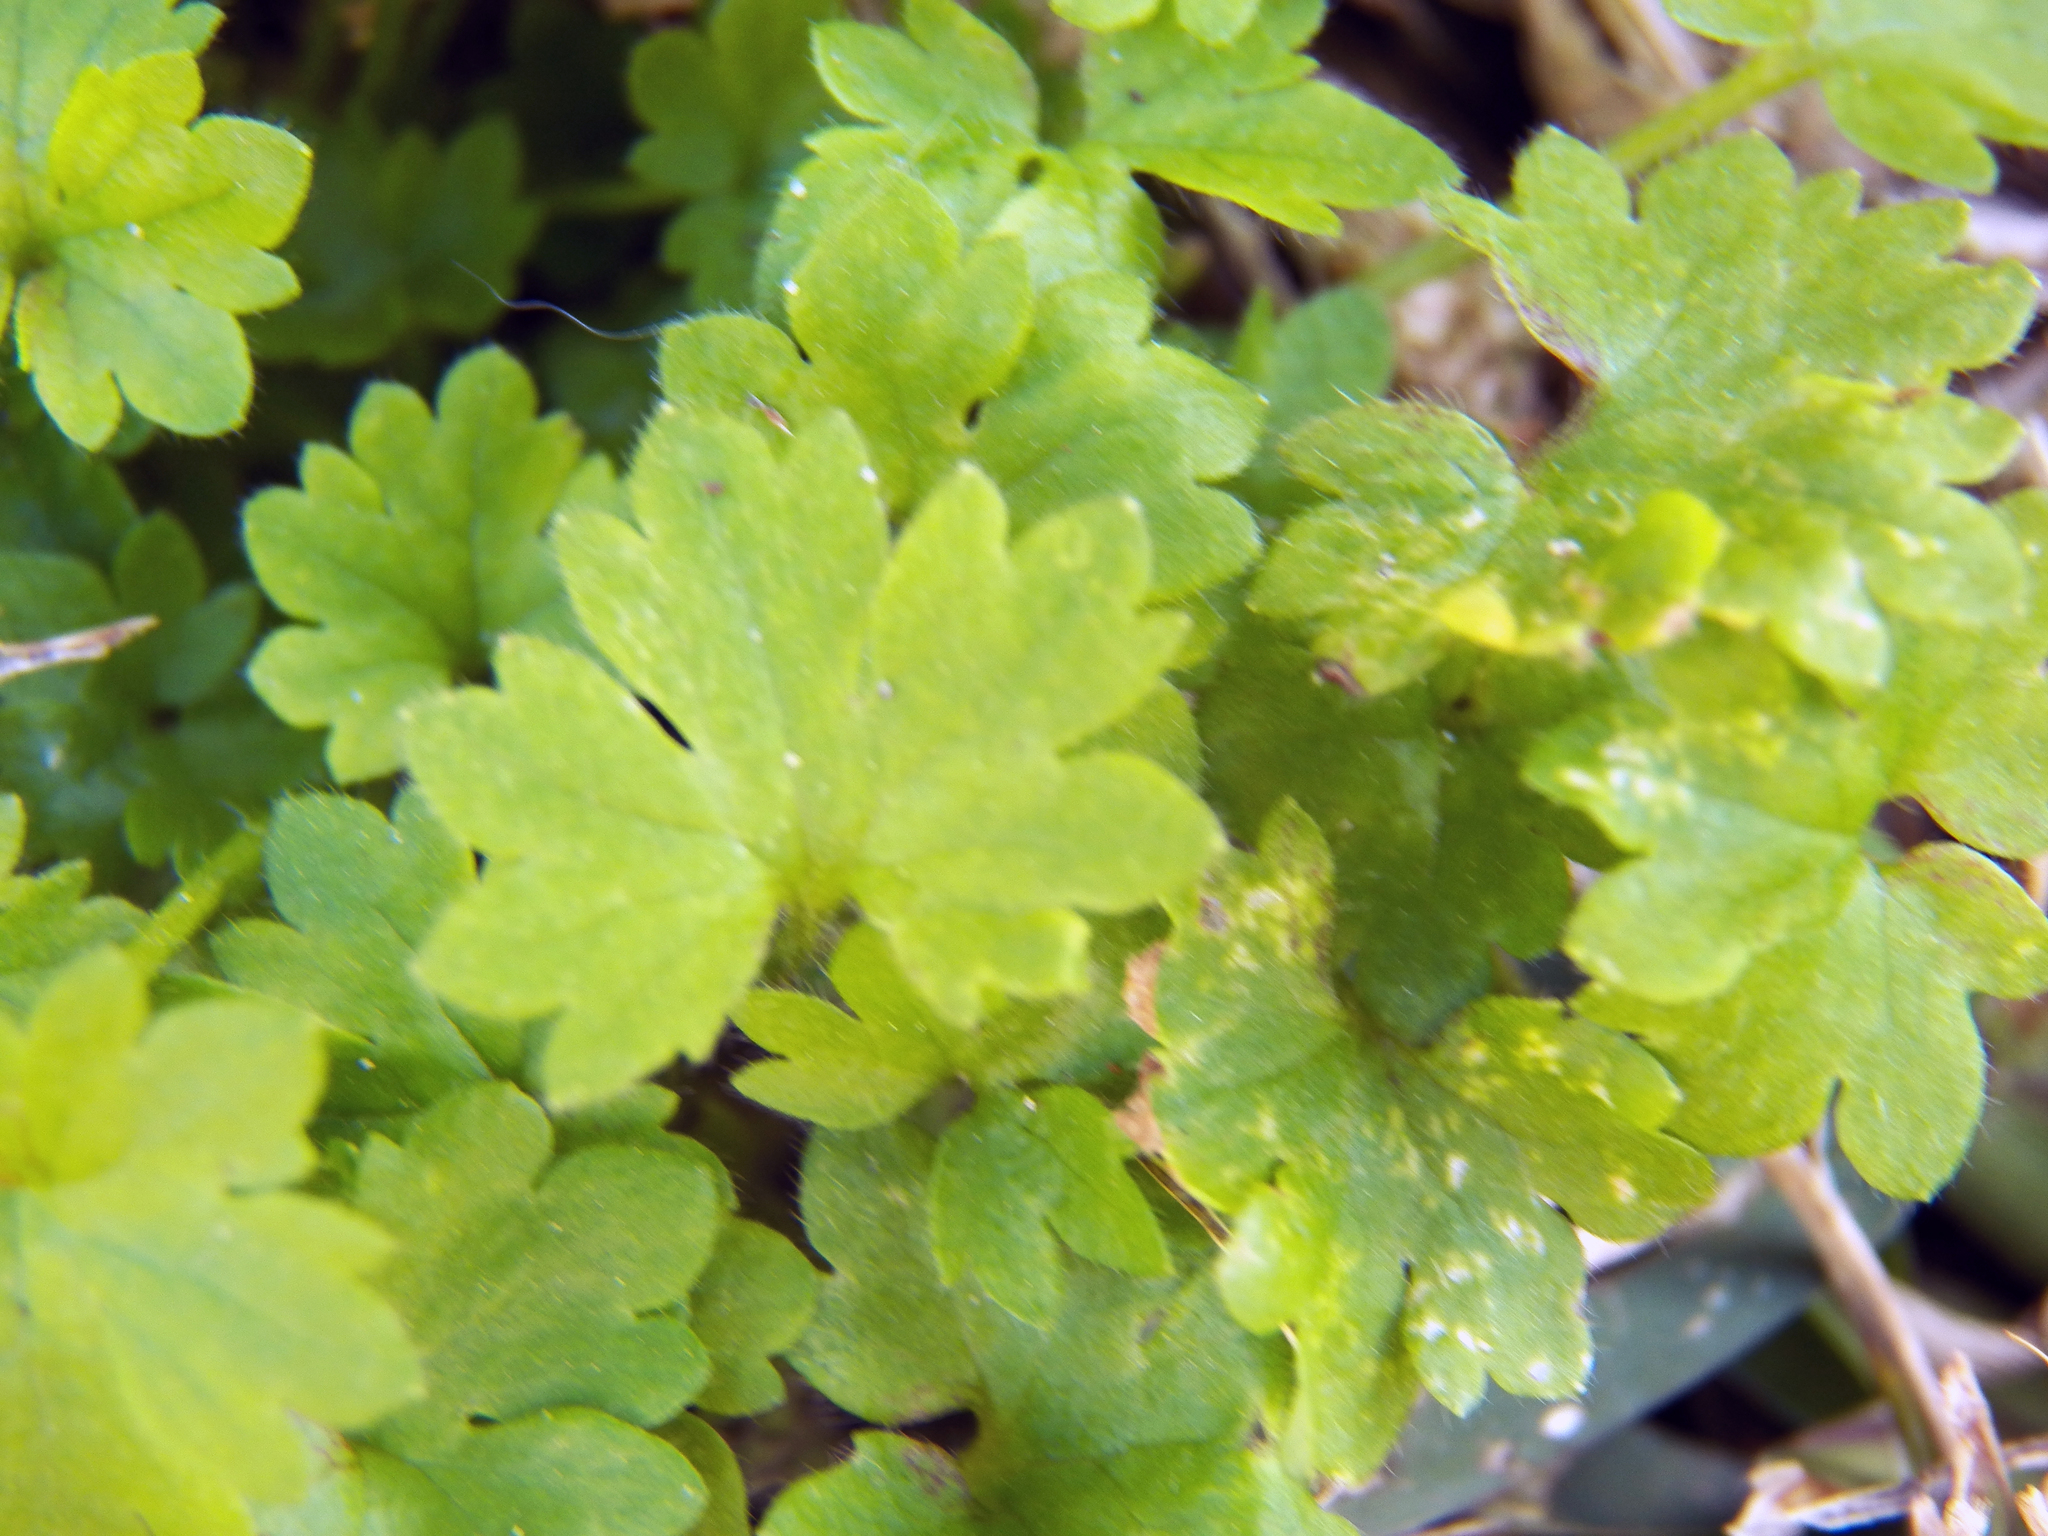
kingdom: Plantae
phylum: Tracheophyta
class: Magnoliopsida
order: Apiales
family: Apiaceae
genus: Bowlesia
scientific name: Bowlesia incana
